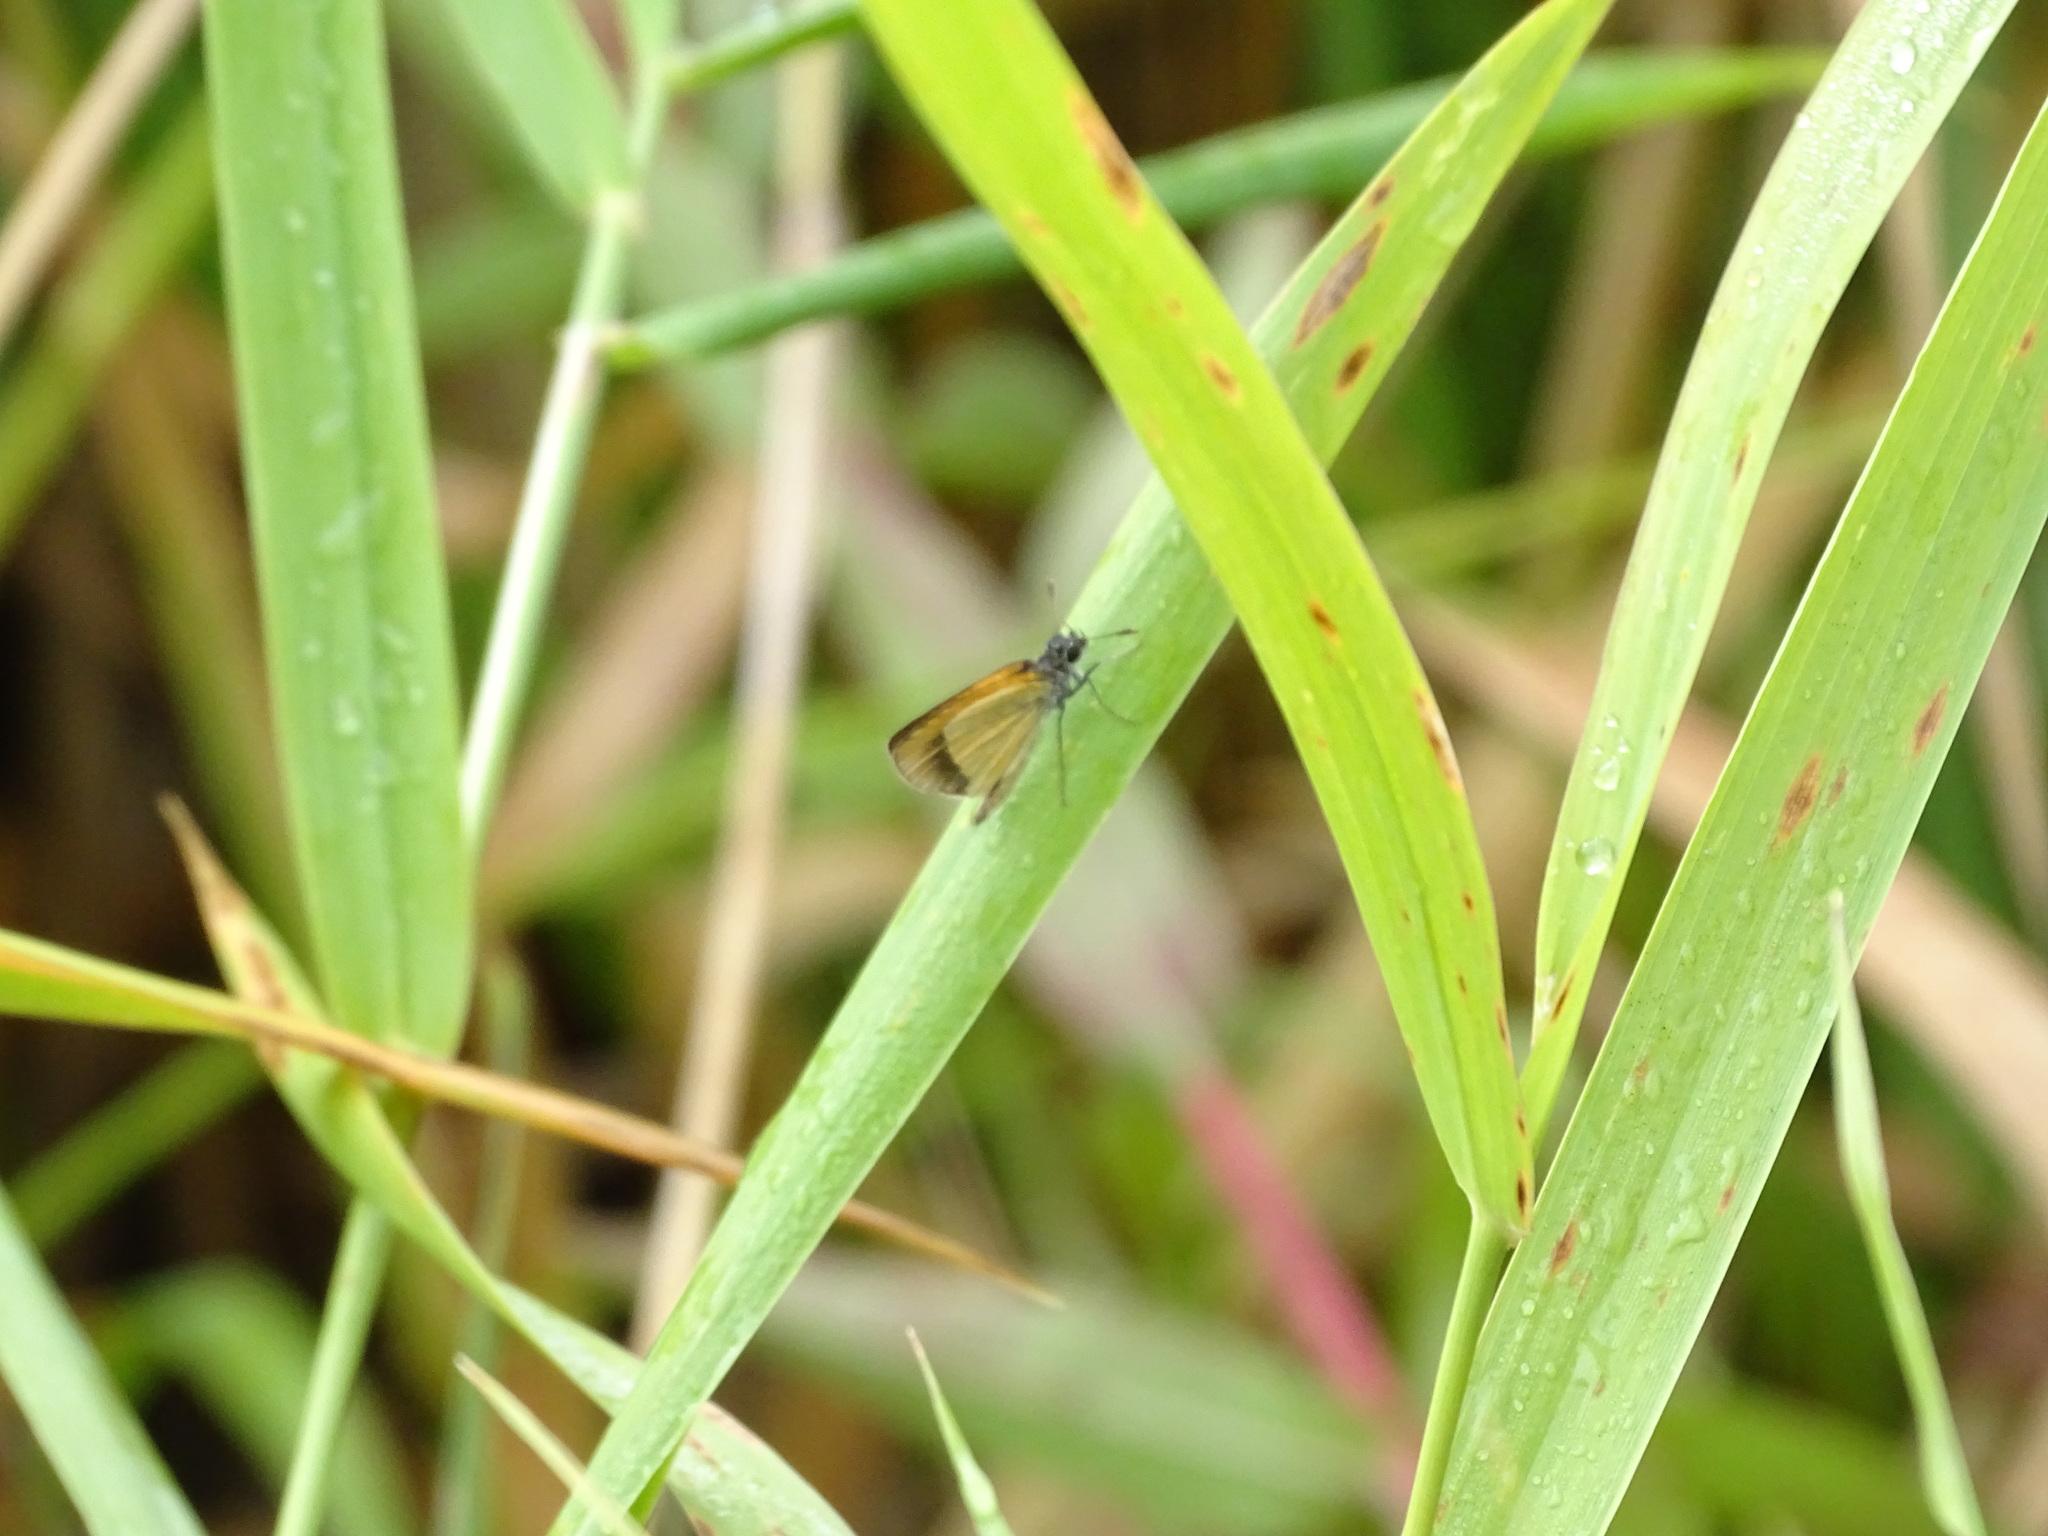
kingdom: Animalia
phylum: Arthropoda
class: Insecta
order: Lepidoptera
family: Hesperiidae
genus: Ancyloxypha
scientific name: Ancyloxypha numitor
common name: Least skipper
